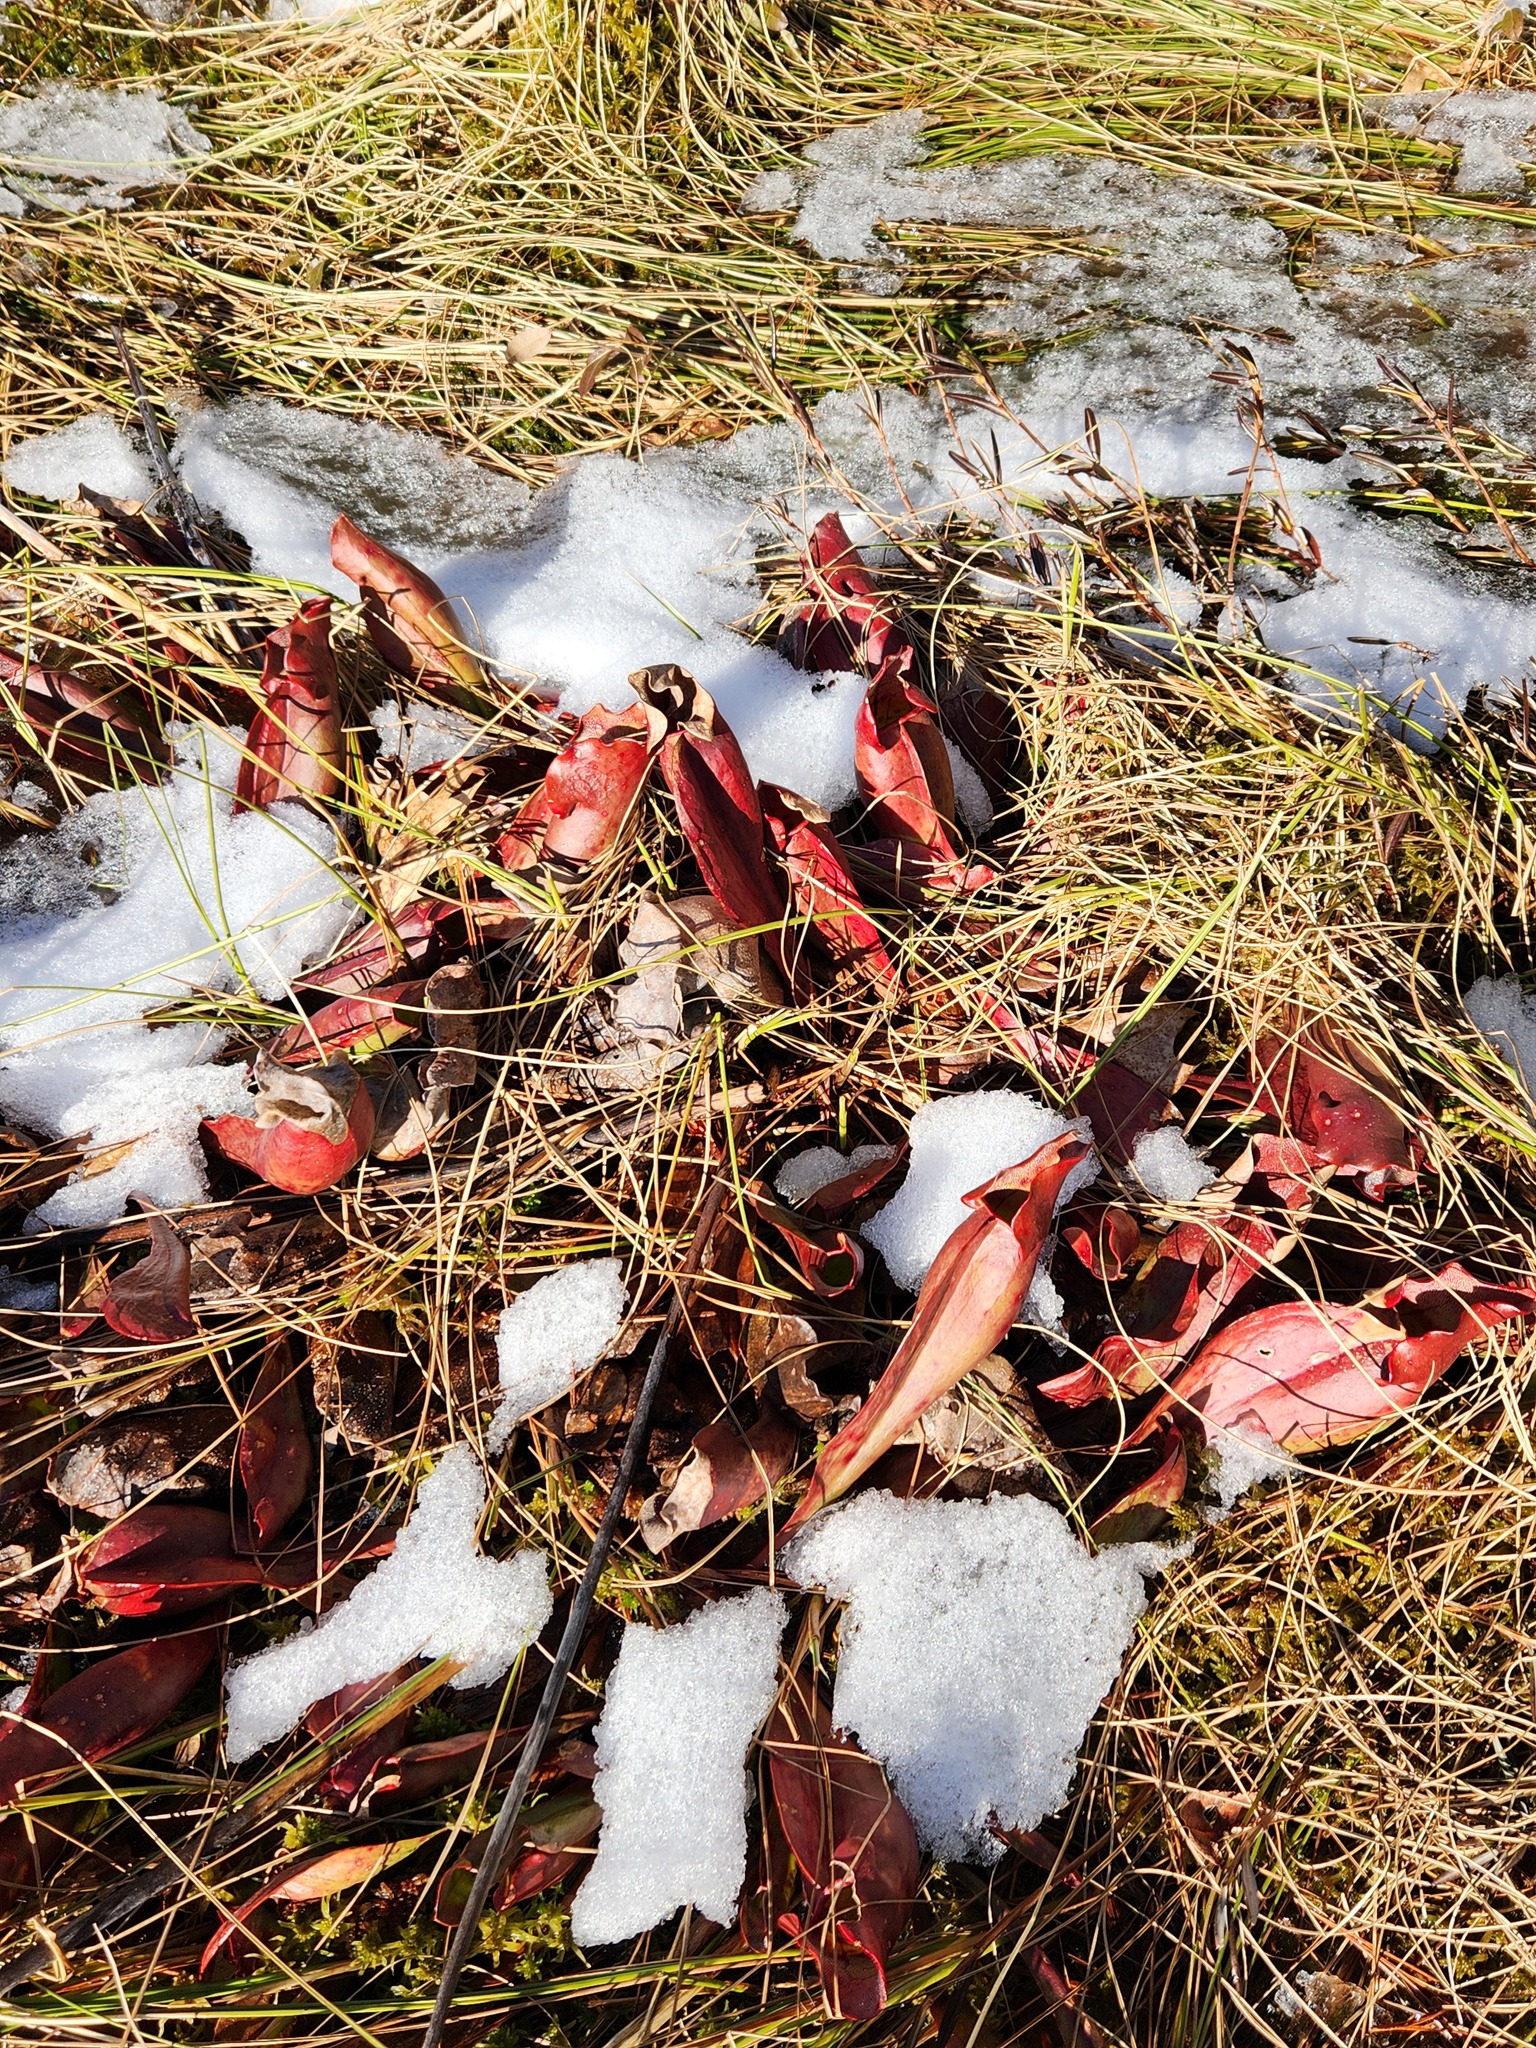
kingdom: Plantae
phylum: Tracheophyta
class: Magnoliopsida
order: Ericales
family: Sarraceniaceae
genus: Sarracenia
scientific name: Sarracenia purpurea
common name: Pitcherplant
